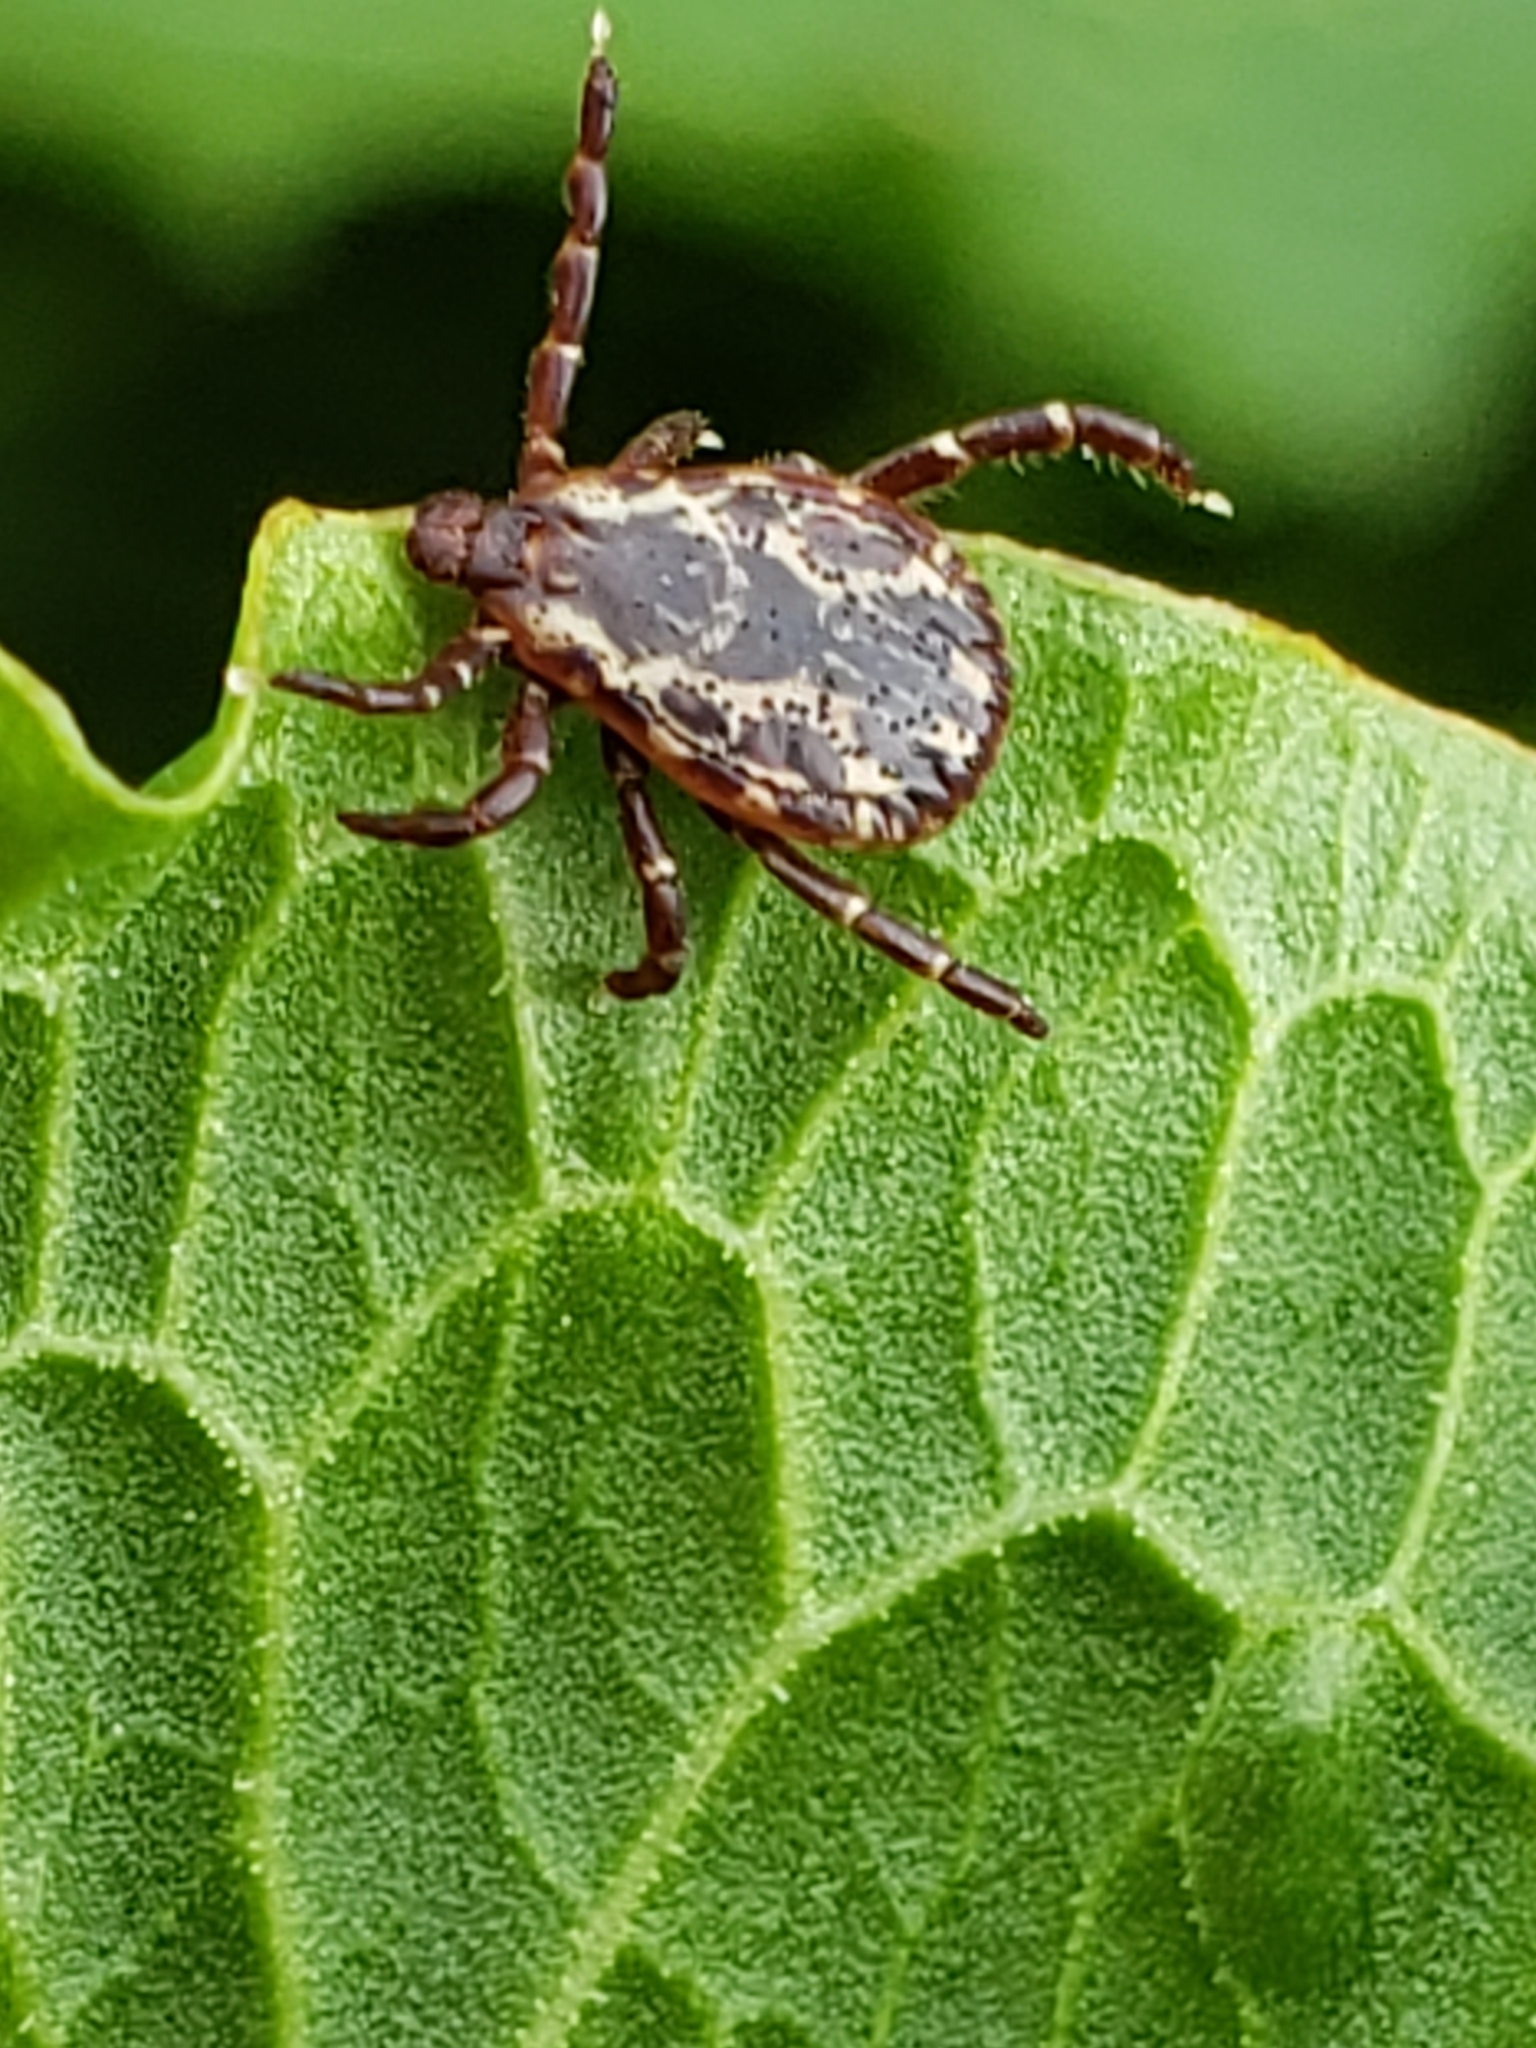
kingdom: Animalia
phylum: Arthropoda
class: Arachnida
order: Ixodida
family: Ixodidae
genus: Dermacentor
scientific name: Dermacentor variabilis
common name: American dog tick
